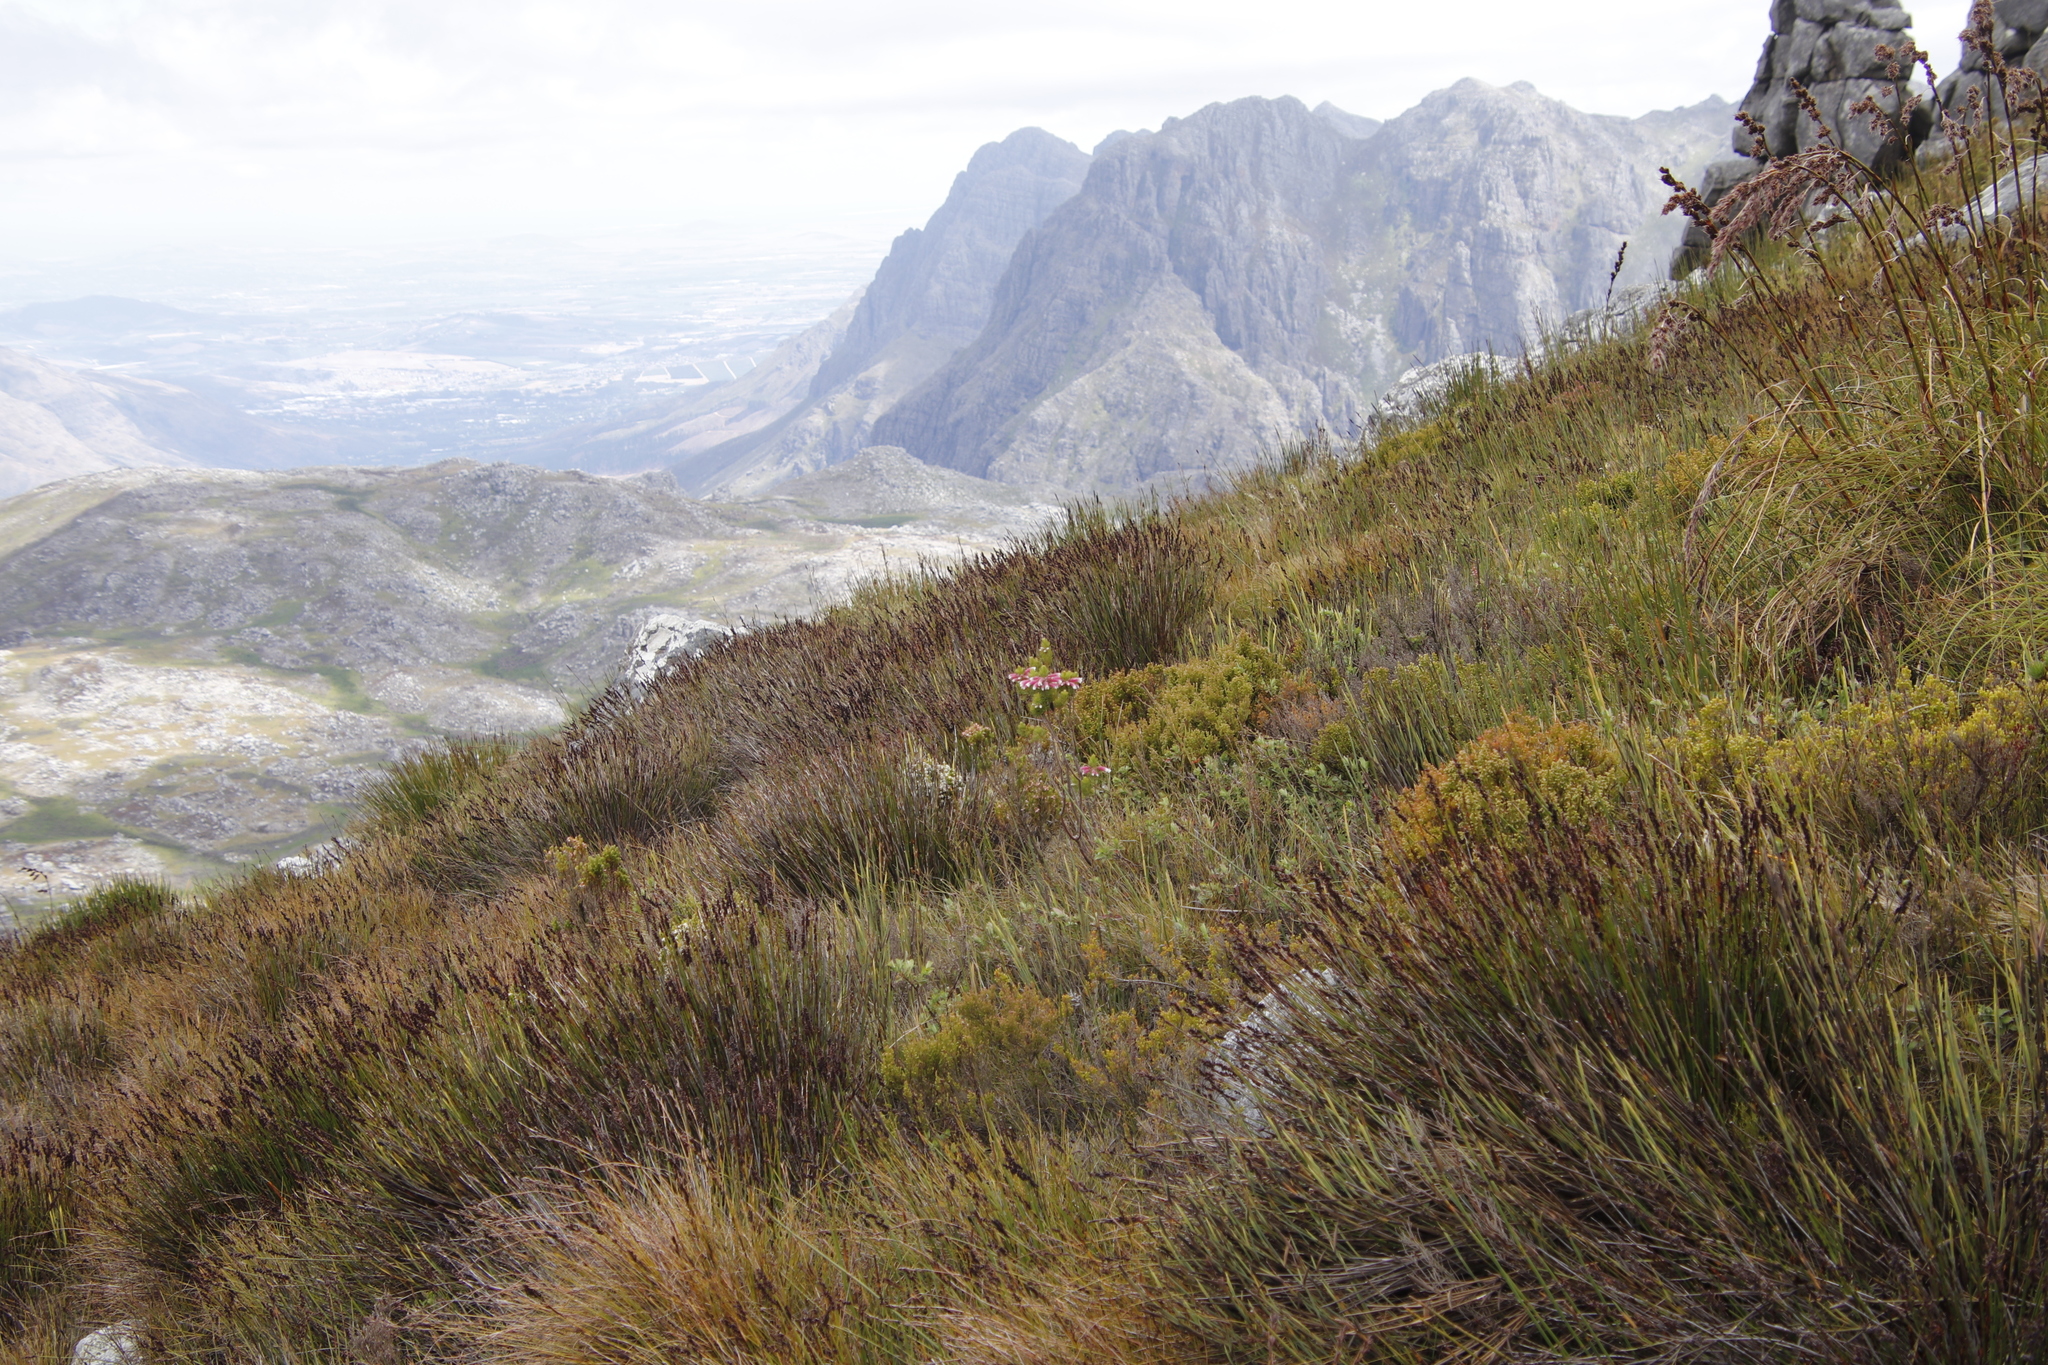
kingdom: Plantae
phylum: Tracheophyta
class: Magnoliopsida
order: Ericales
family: Ericaceae
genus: Erica
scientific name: Erica viscaria
